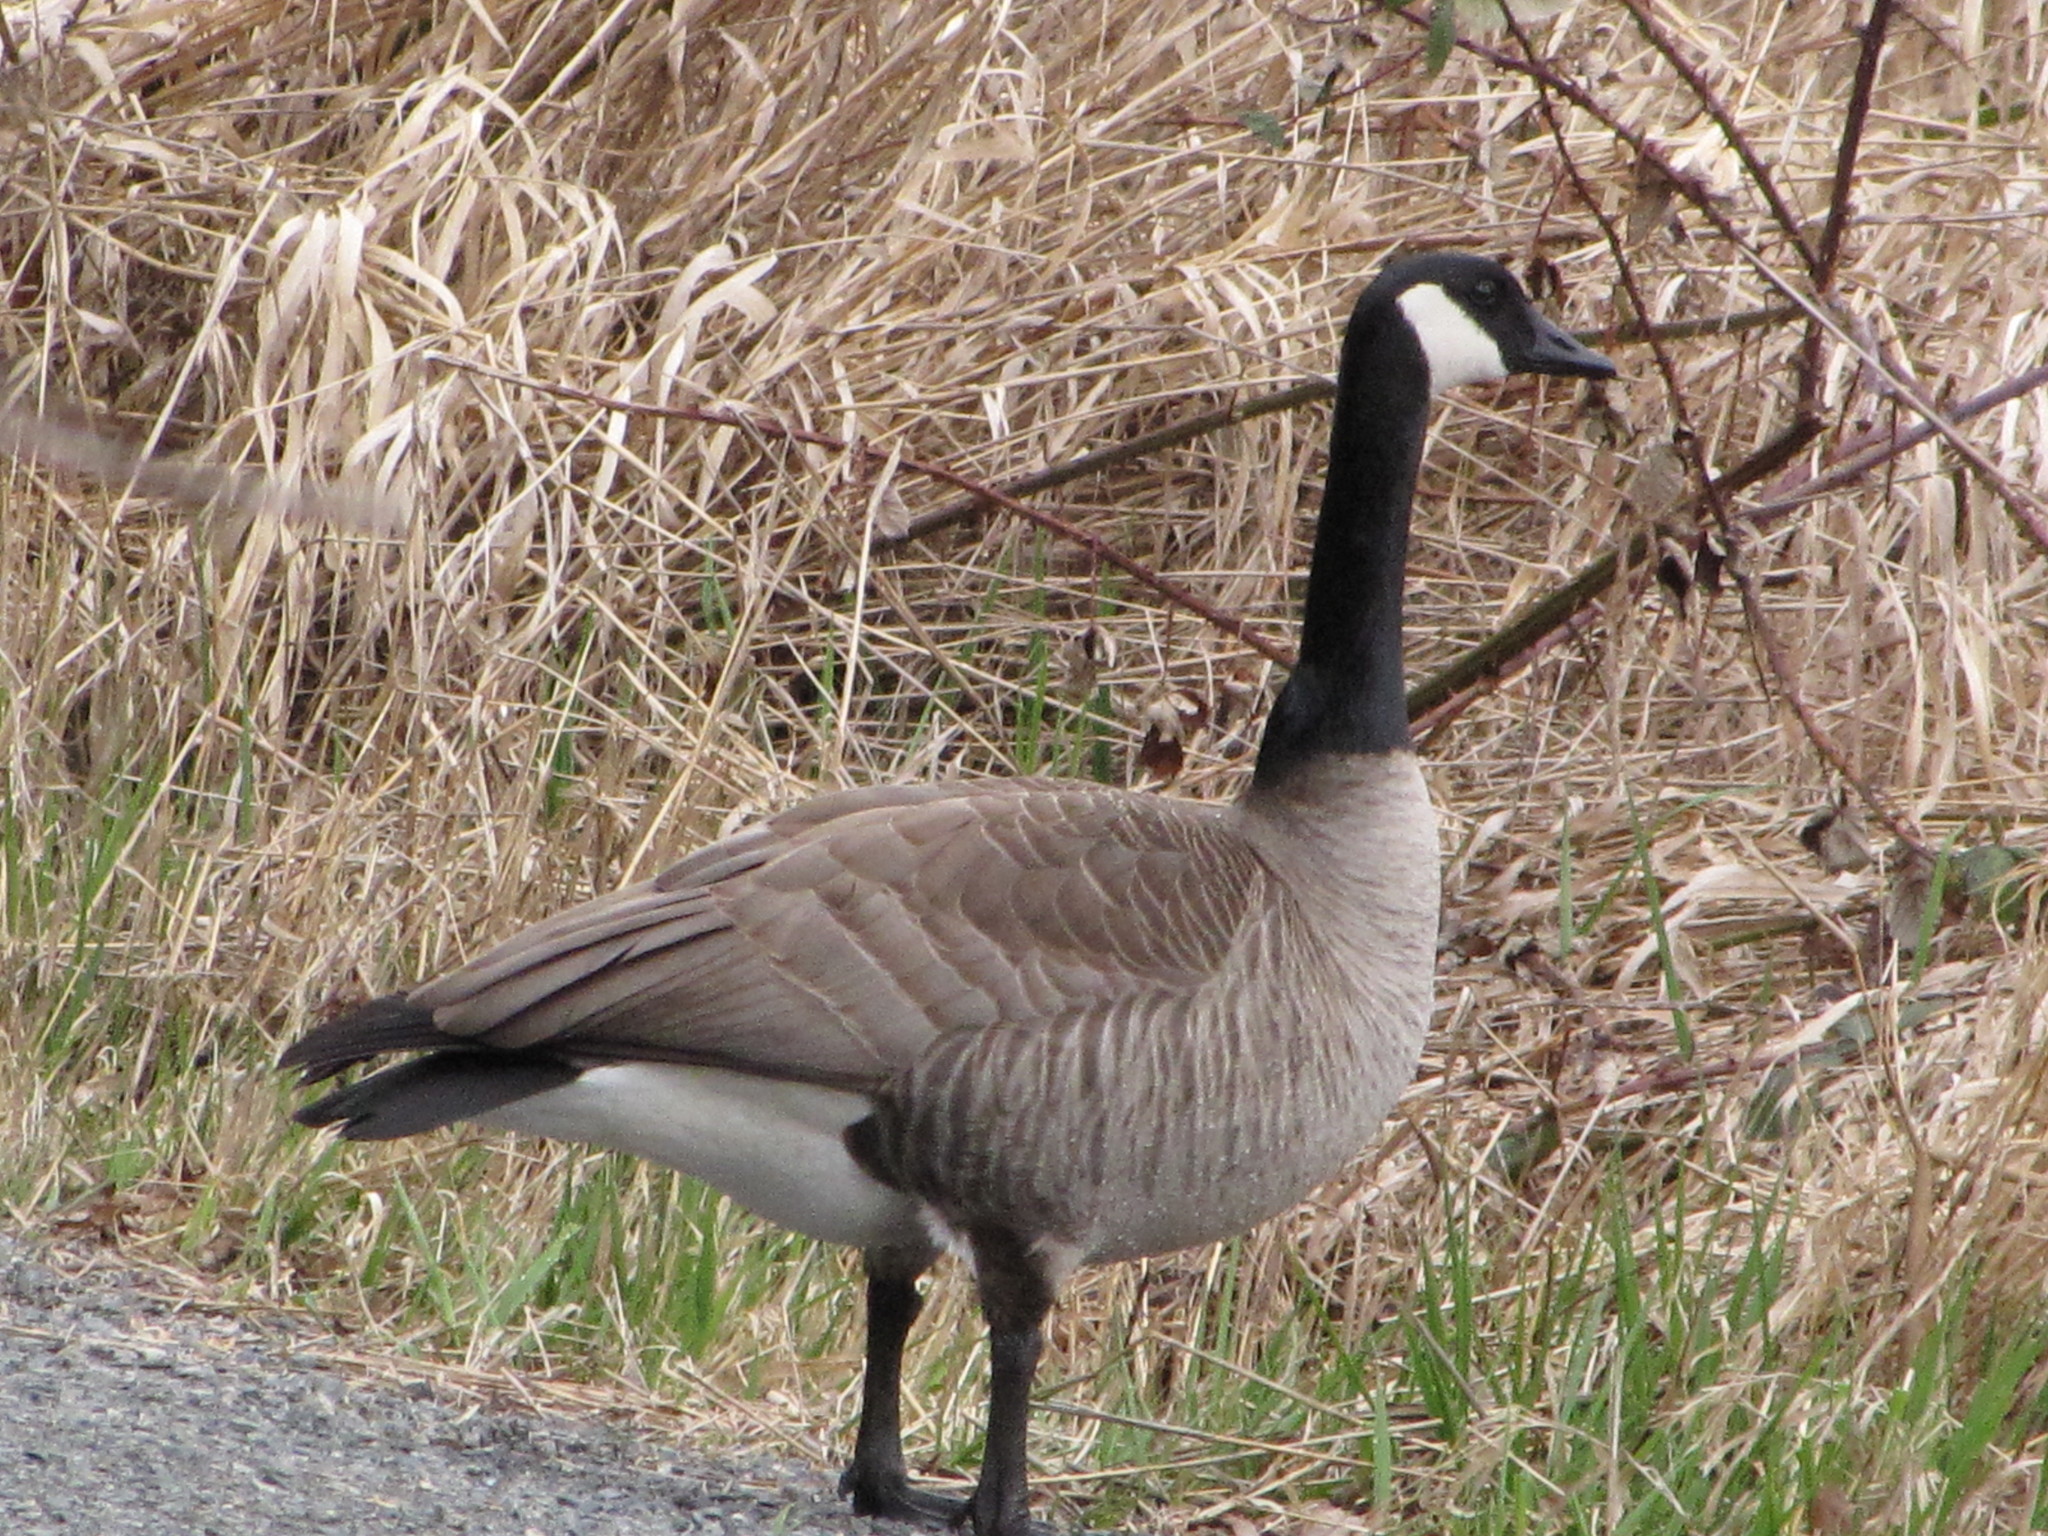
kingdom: Animalia
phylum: Chordata
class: Aves
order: Anseriformes
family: Anatidae
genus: Branta
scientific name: Branta canadensis
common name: Canada goose
